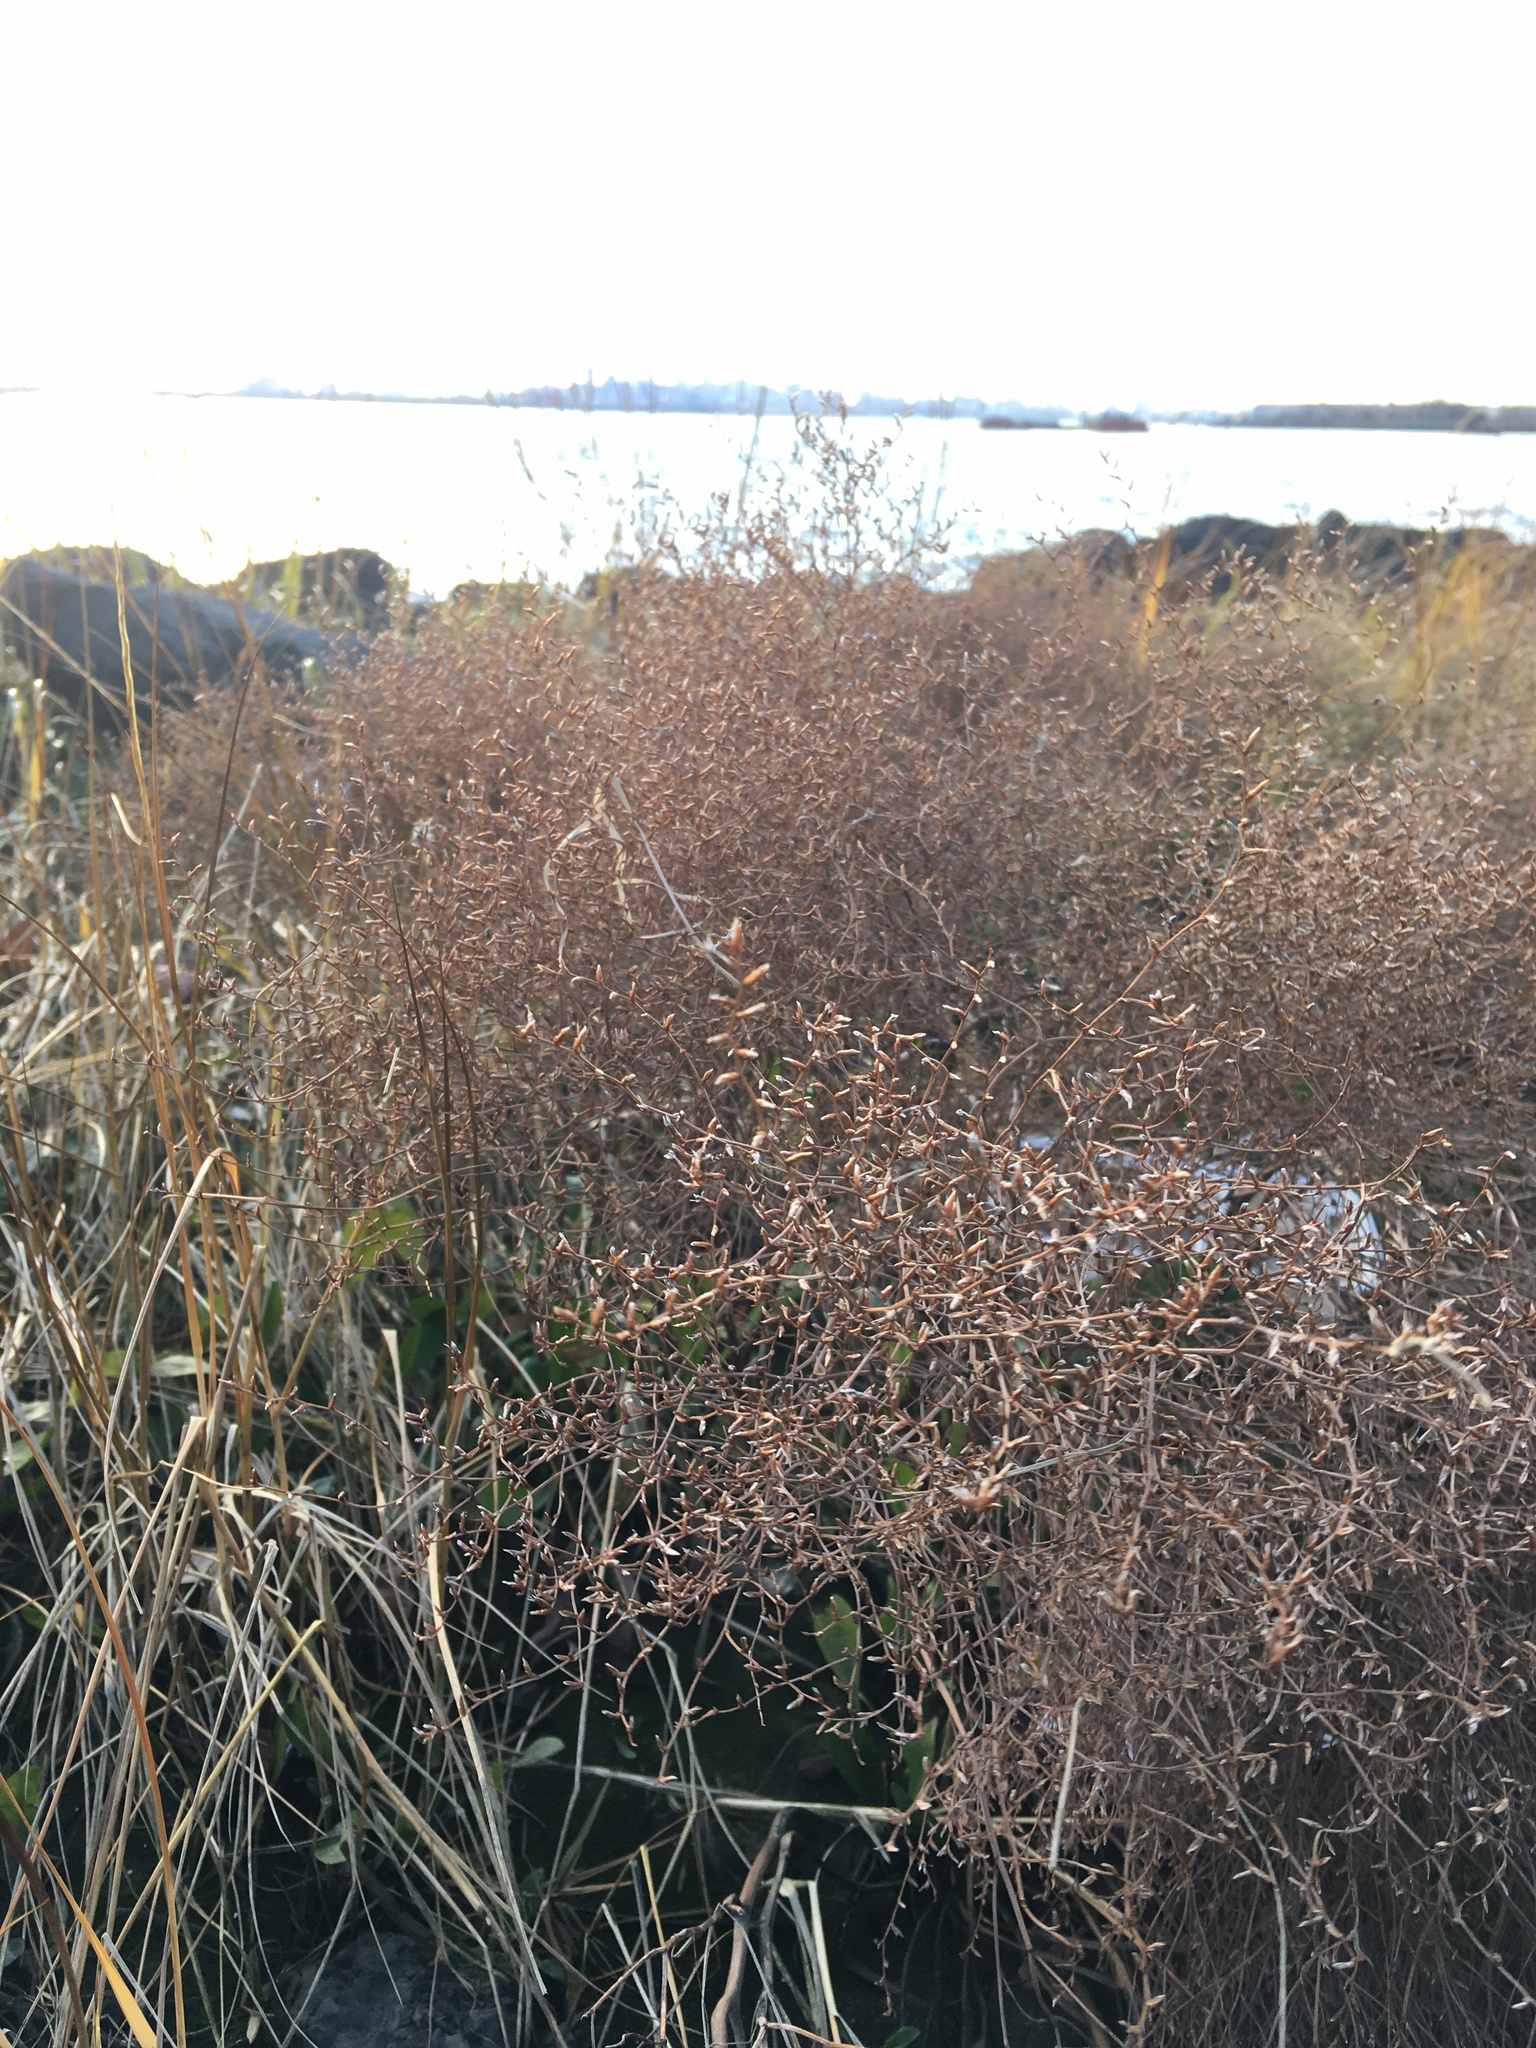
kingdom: Plantae
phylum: Tracheophyta
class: Magnoliopsida
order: Caryophyllales
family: Plumbaginaceae
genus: Limonium
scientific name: Limonium carolinianum
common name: Carolina sea lavender
